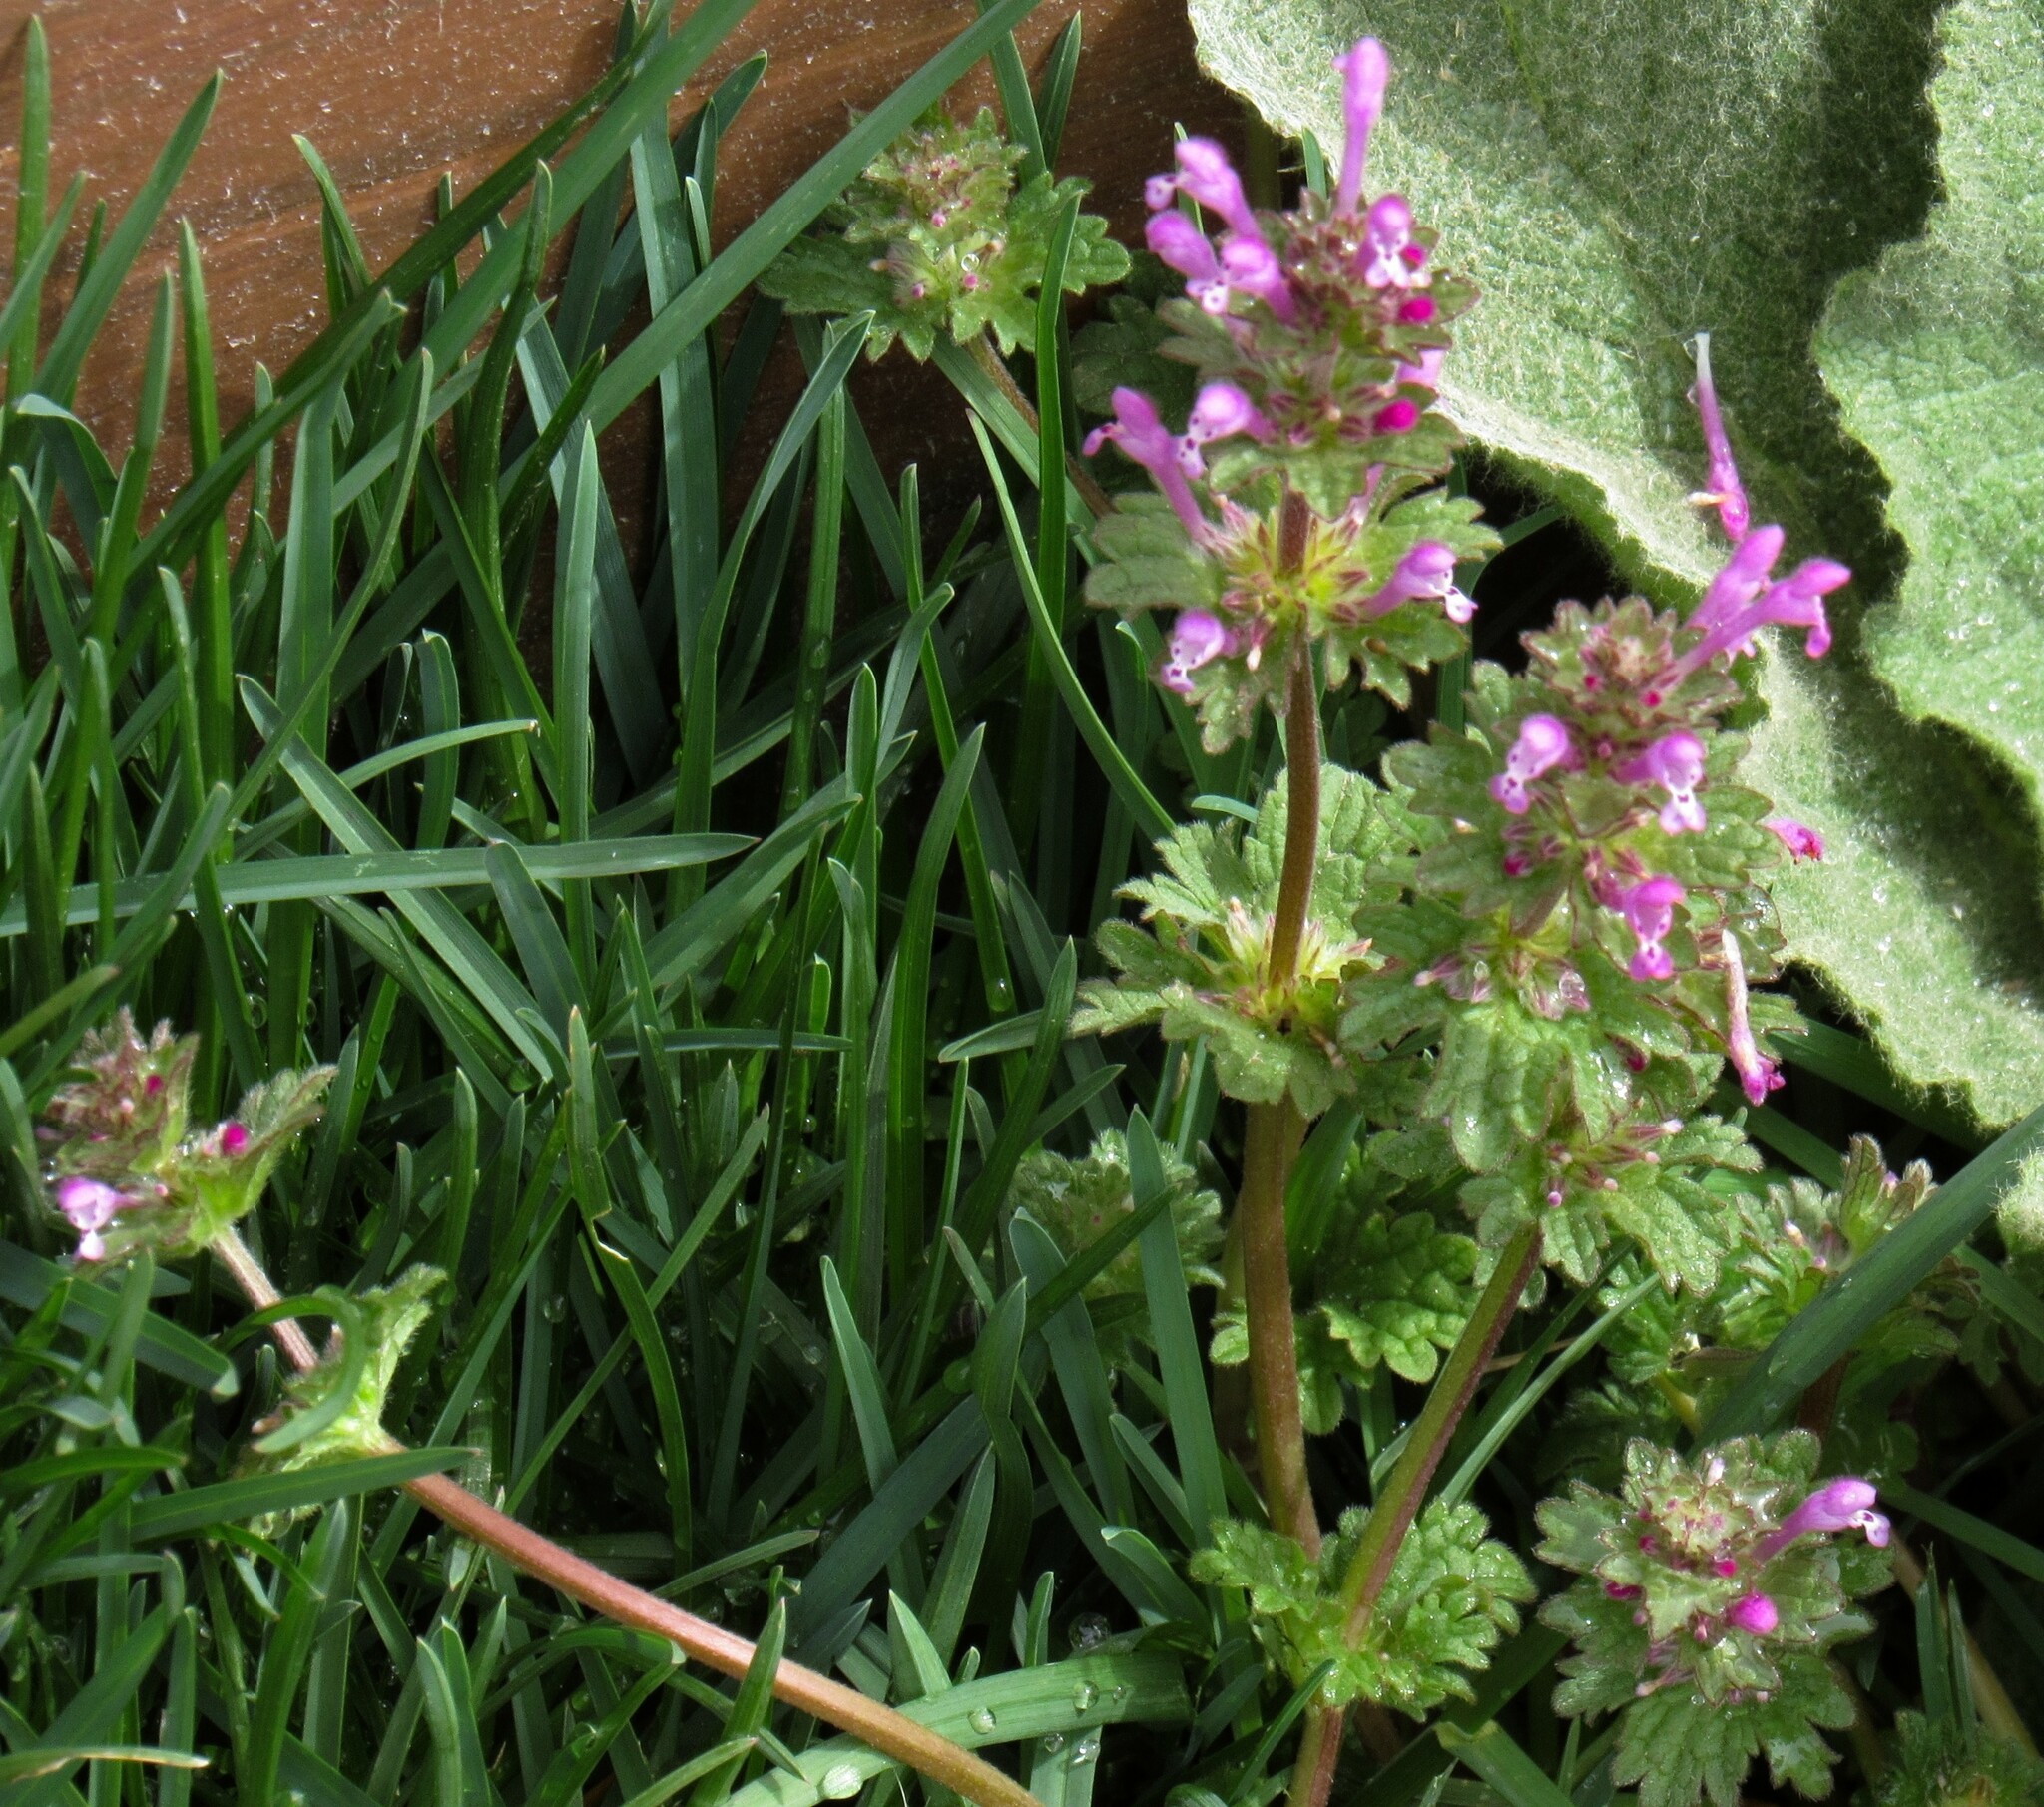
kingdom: Plantae
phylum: Tracheophyta
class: Magnoliopsida
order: Lamiales
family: Lamiaceae
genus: Lamium
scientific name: Lamium amplexicaule
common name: Henbit dead-nettle
